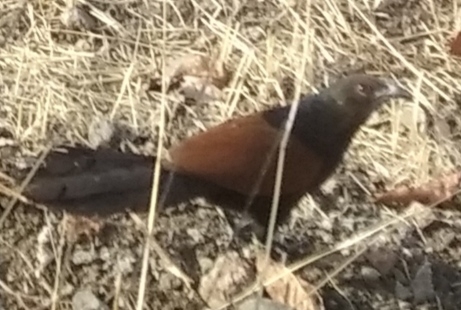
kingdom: Animalia
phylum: Chordata
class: Aves
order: Cuculiformes
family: Cuculidae
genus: Centropus
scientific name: Centropus sinensis
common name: Greater coucal
